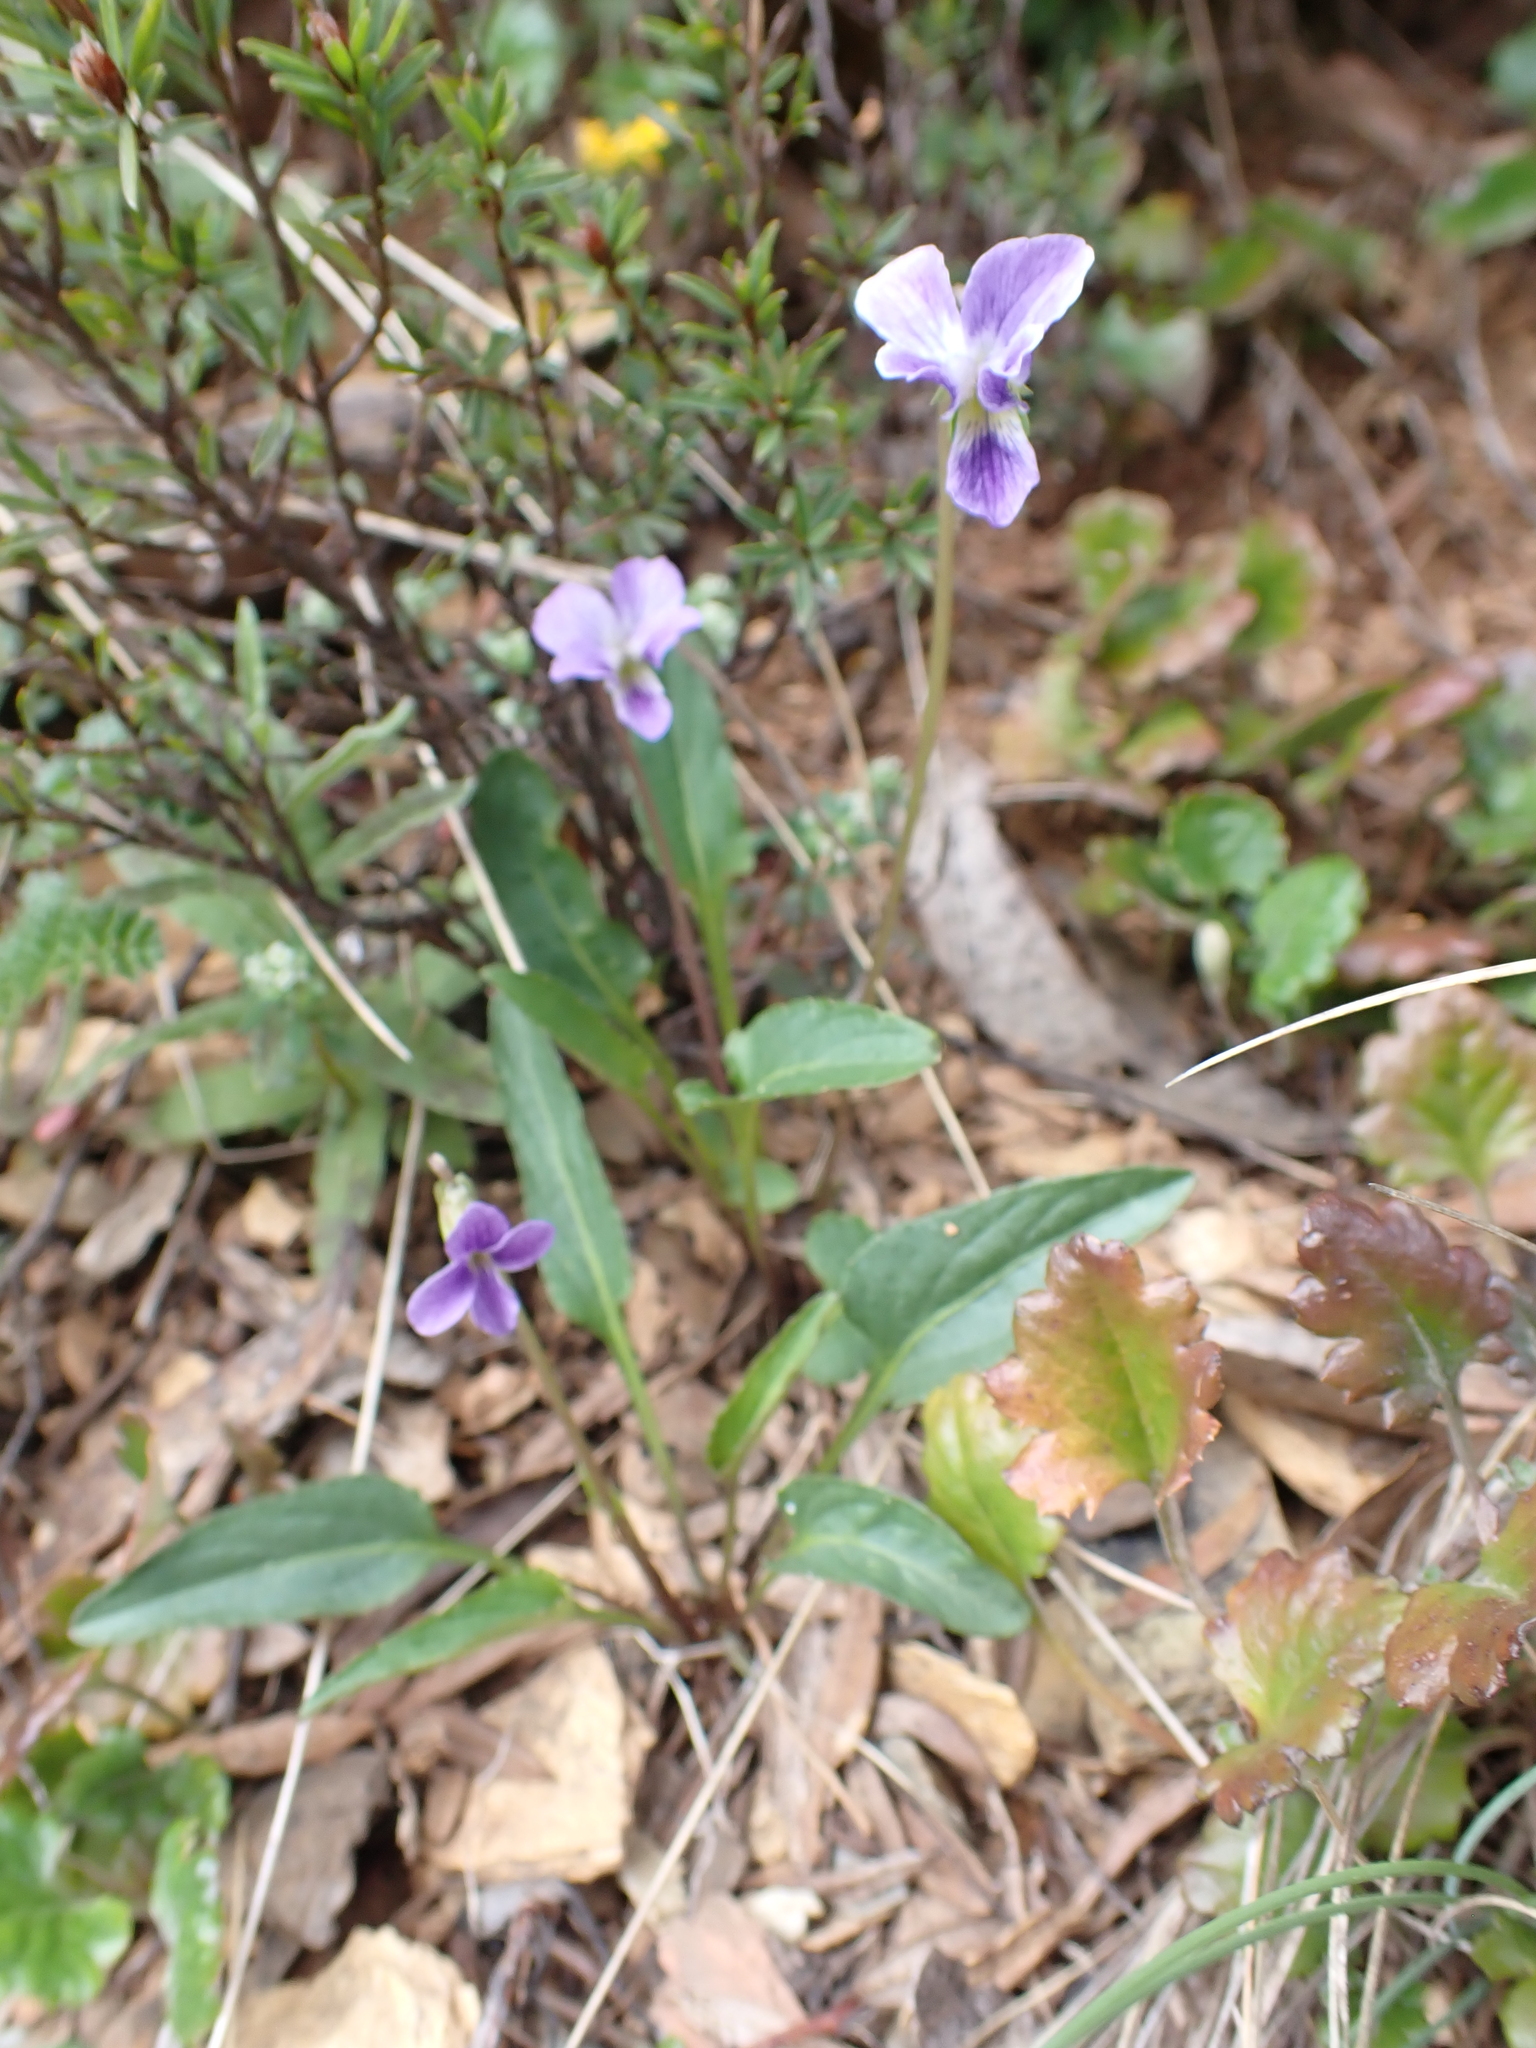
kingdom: Plantae
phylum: Tracheophyta
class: Magnoliopsida
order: Malpighiales
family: Violaceae
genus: Viola
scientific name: Viola betonicifolia
